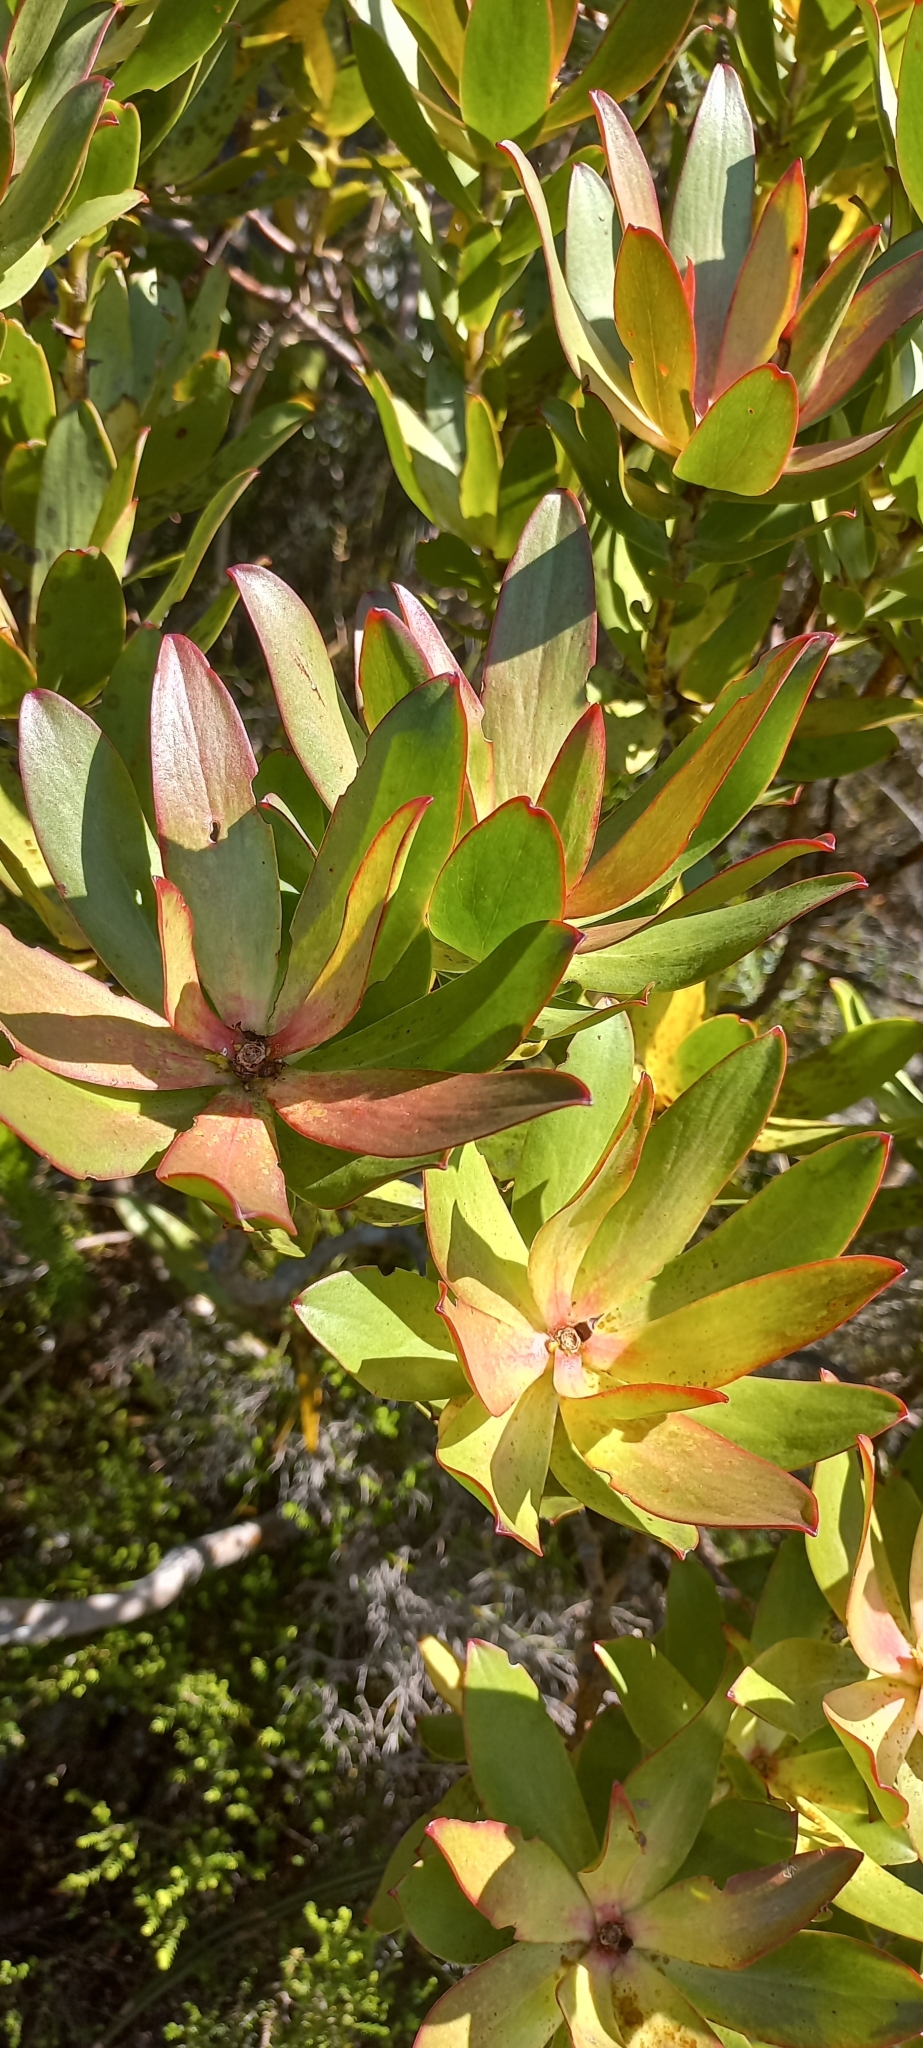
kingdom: Plantae
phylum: Tracheophyta
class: Magnoliopsida
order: Proteales
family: Proteaceae
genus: Leucadendron
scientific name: Leucadendron gandogeri
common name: Broad-leaf conebush
